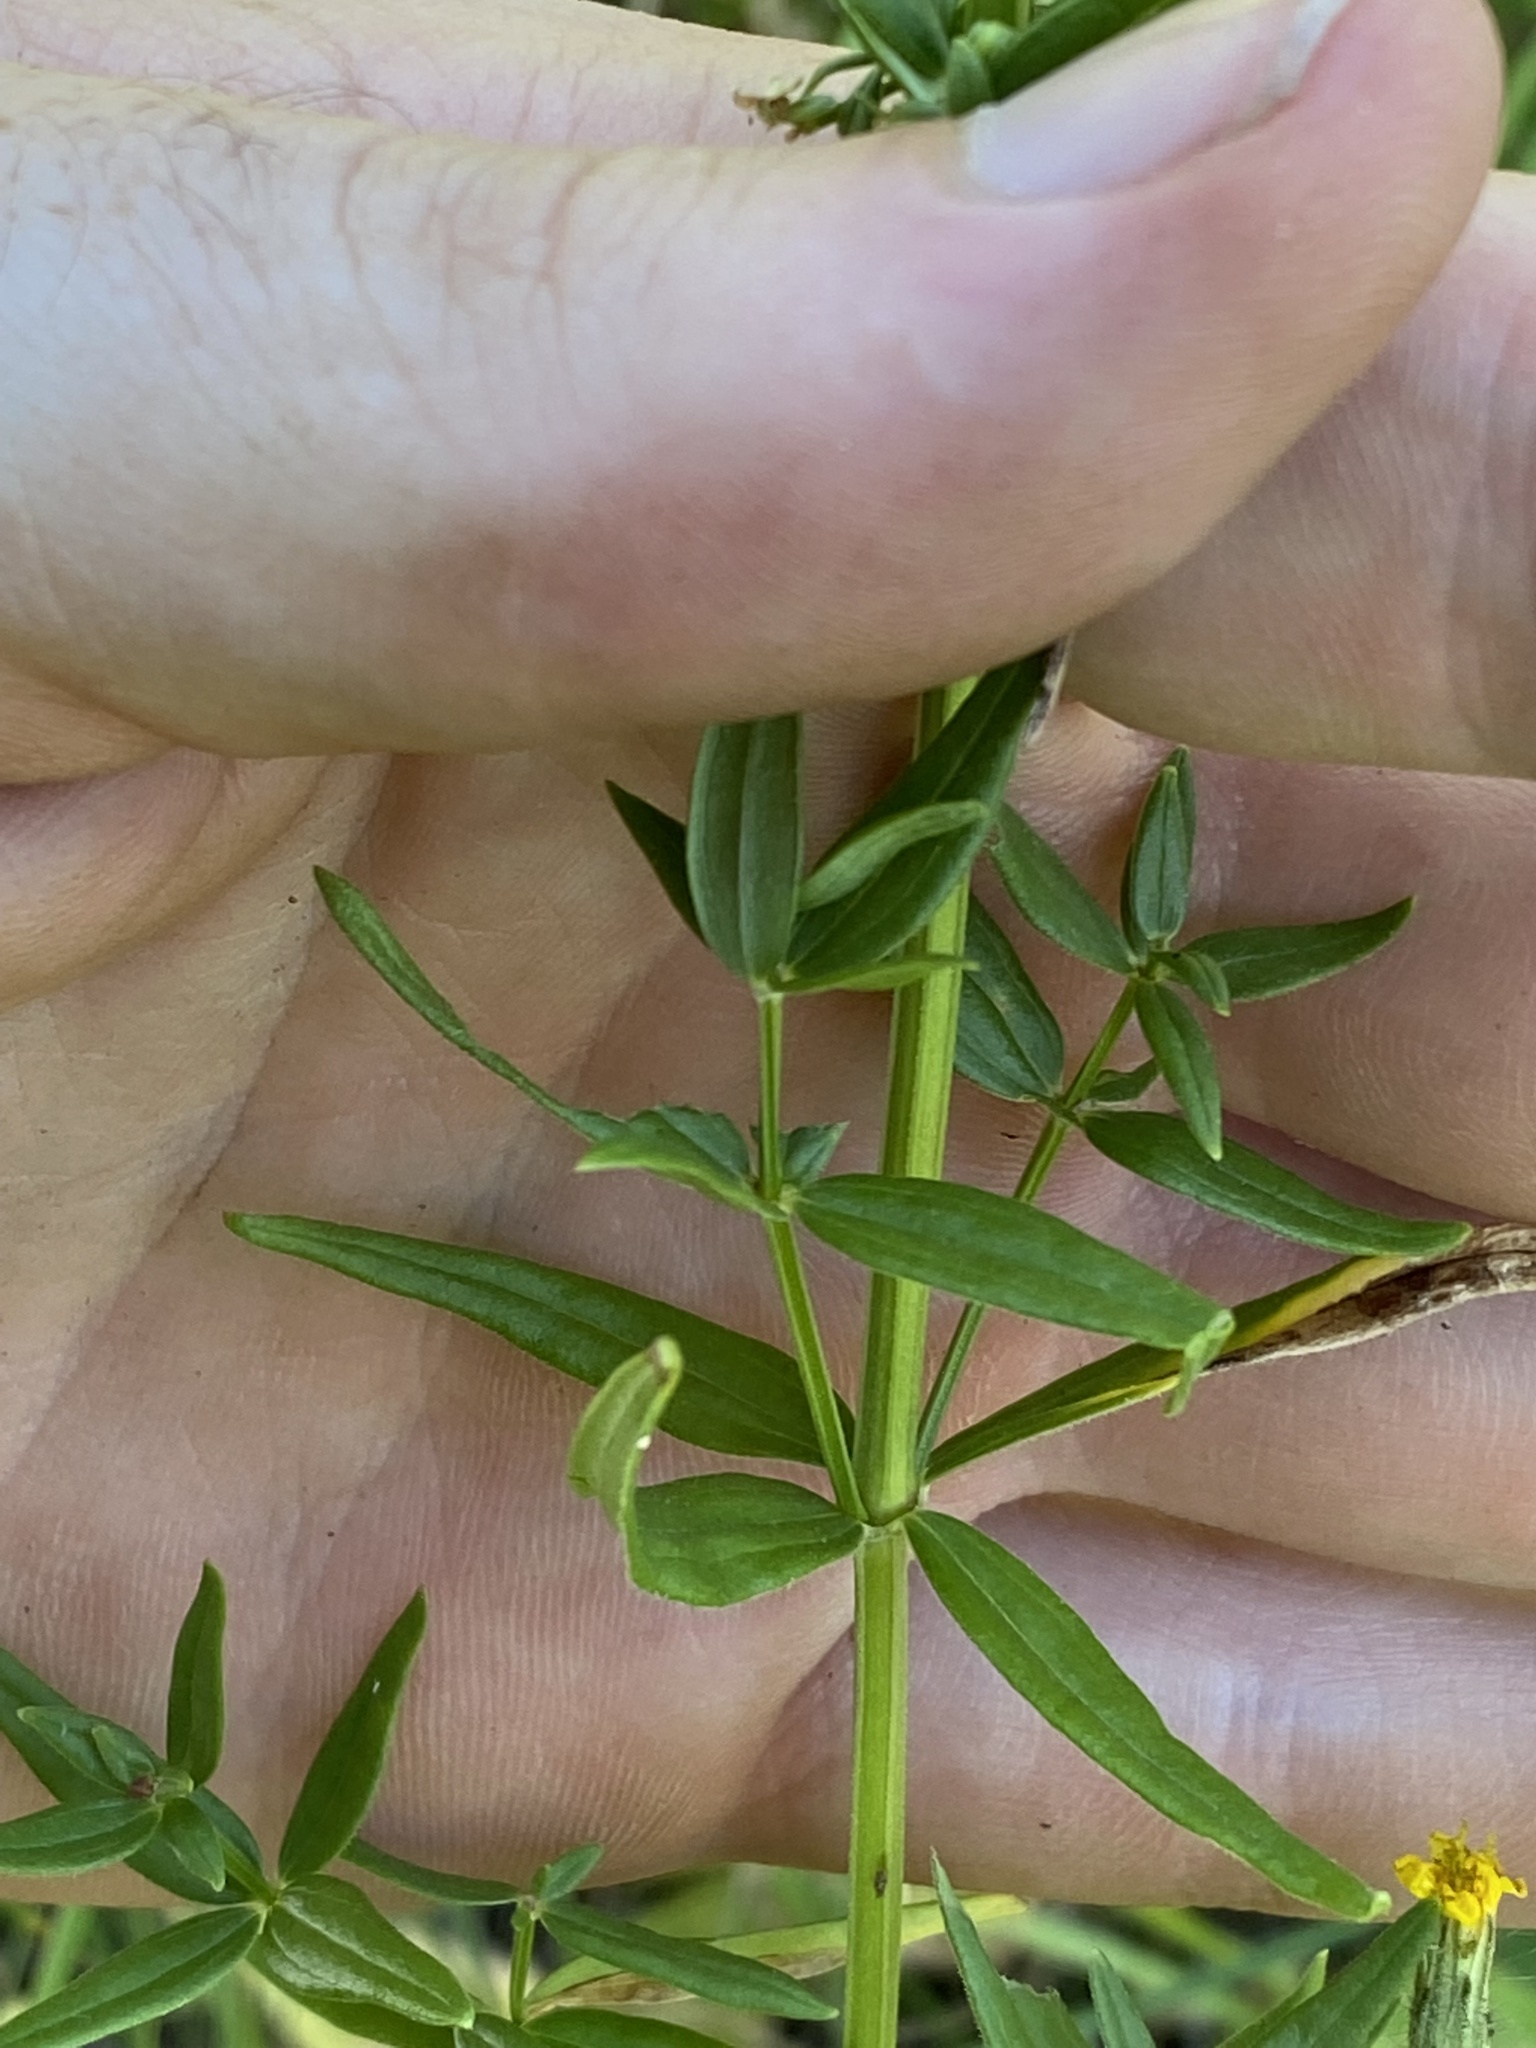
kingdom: Plantae
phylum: Tracheophyta
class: Magnoliopsida
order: Gentianales
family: Rubiaceae
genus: Galium
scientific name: Galium boreale
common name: Northern bedstraw
